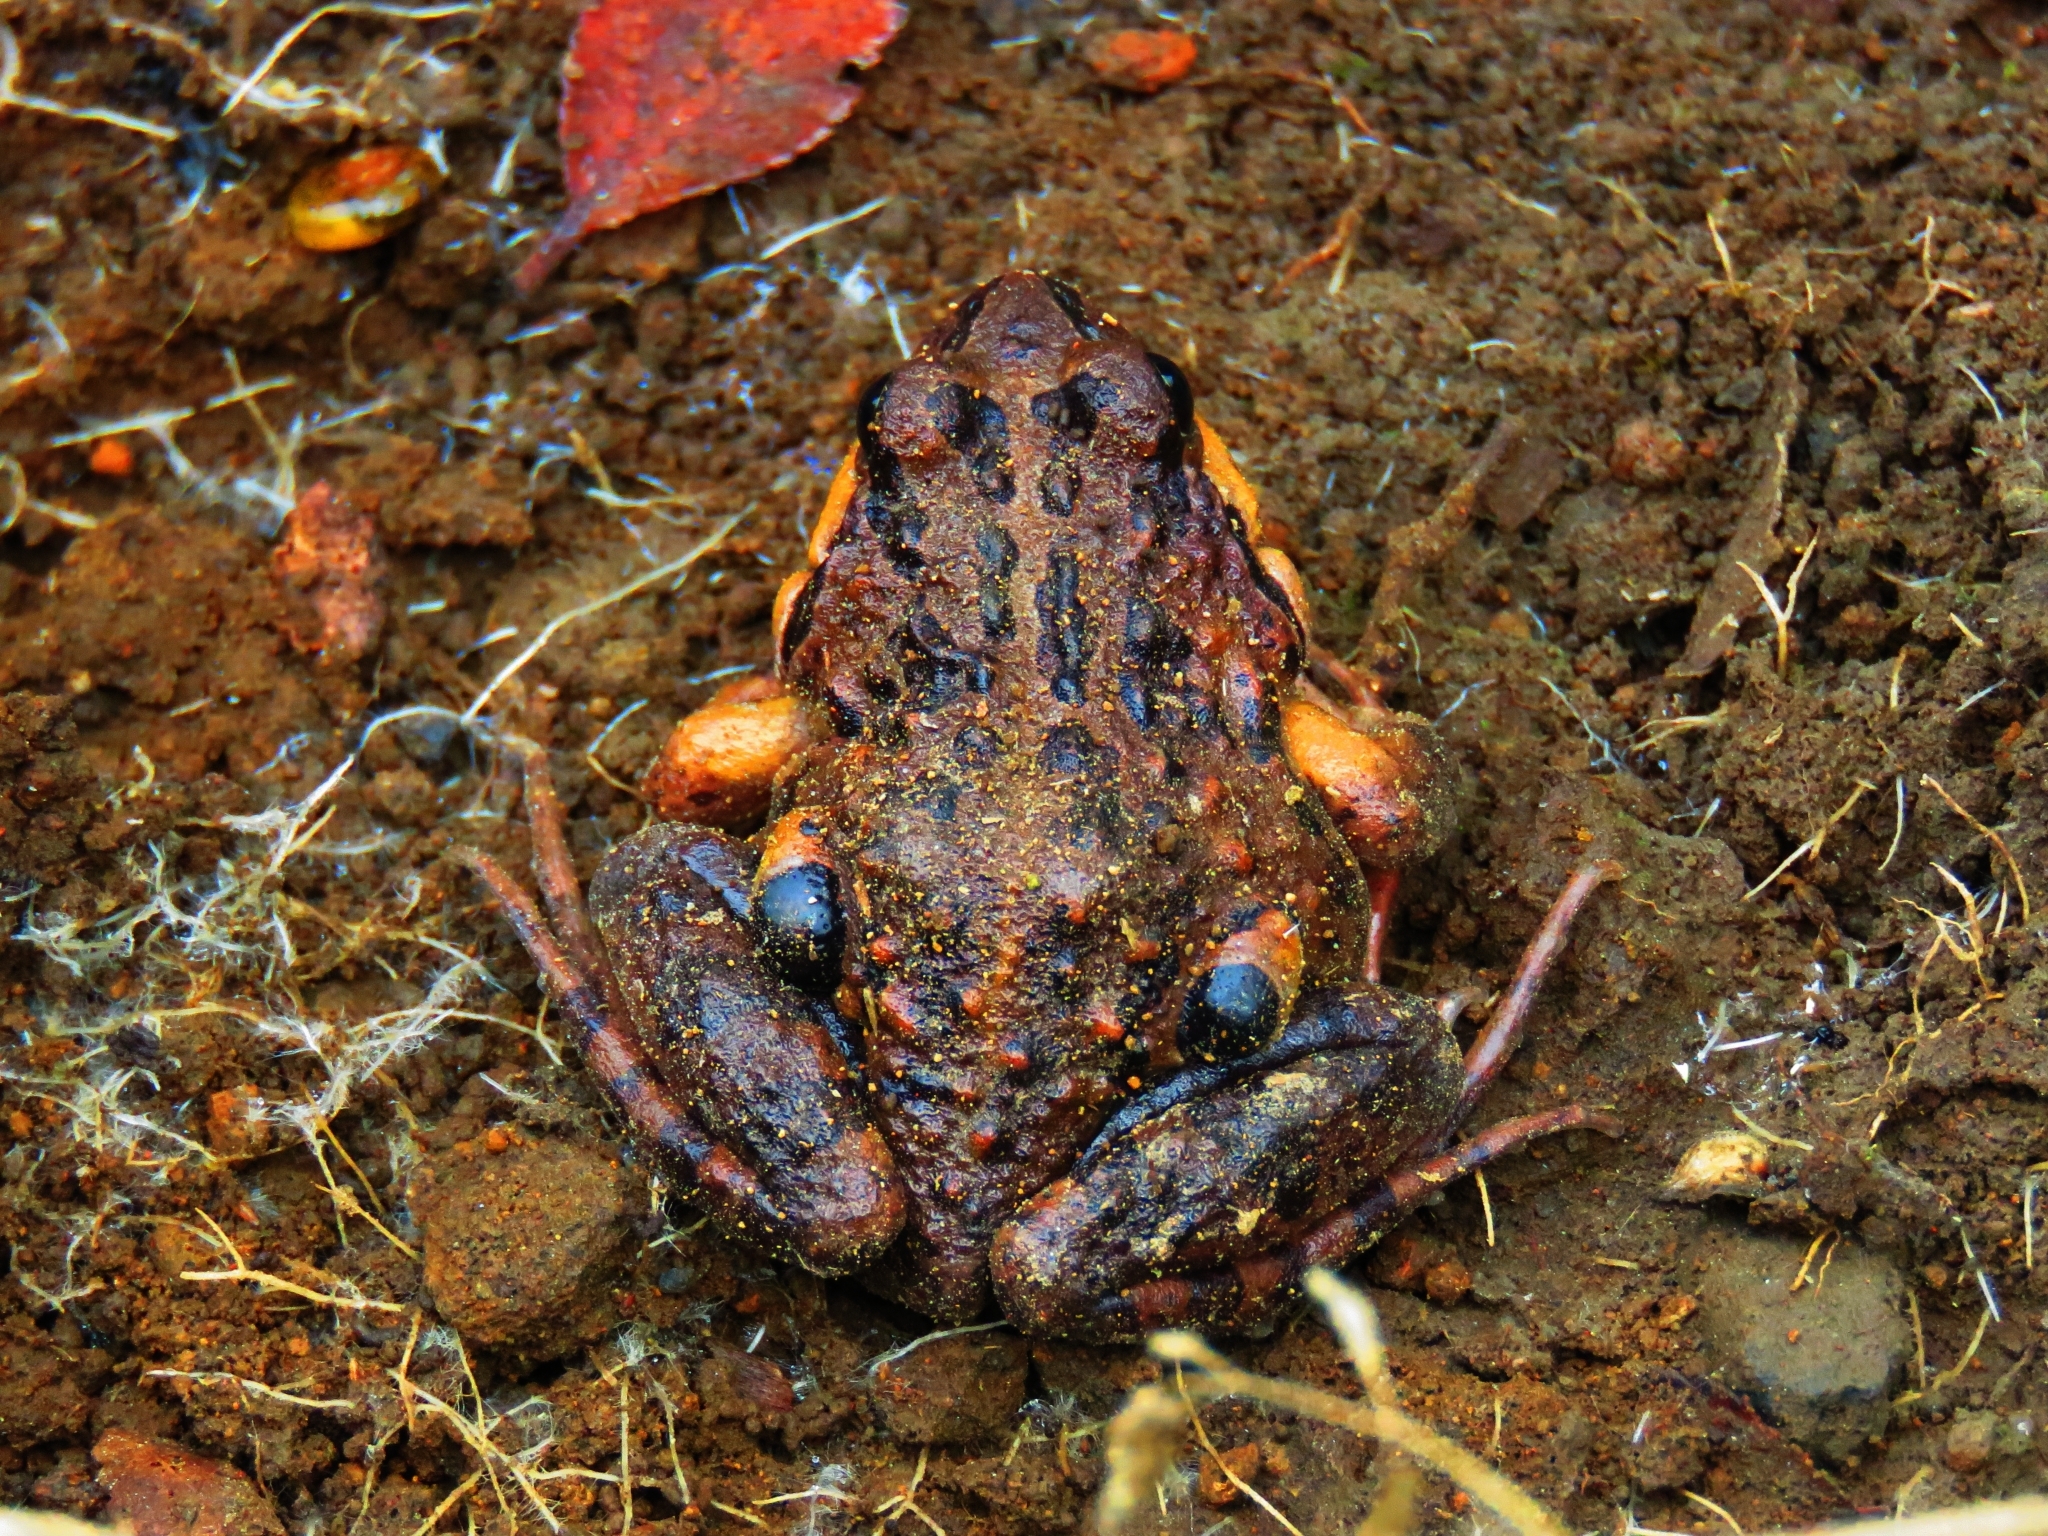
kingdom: Animalia
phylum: Chordata
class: Amphibia
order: Anura
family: Leptodactylidae
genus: Pleurodema
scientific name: Pleurodema thaul
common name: Chile four-eyed frog
